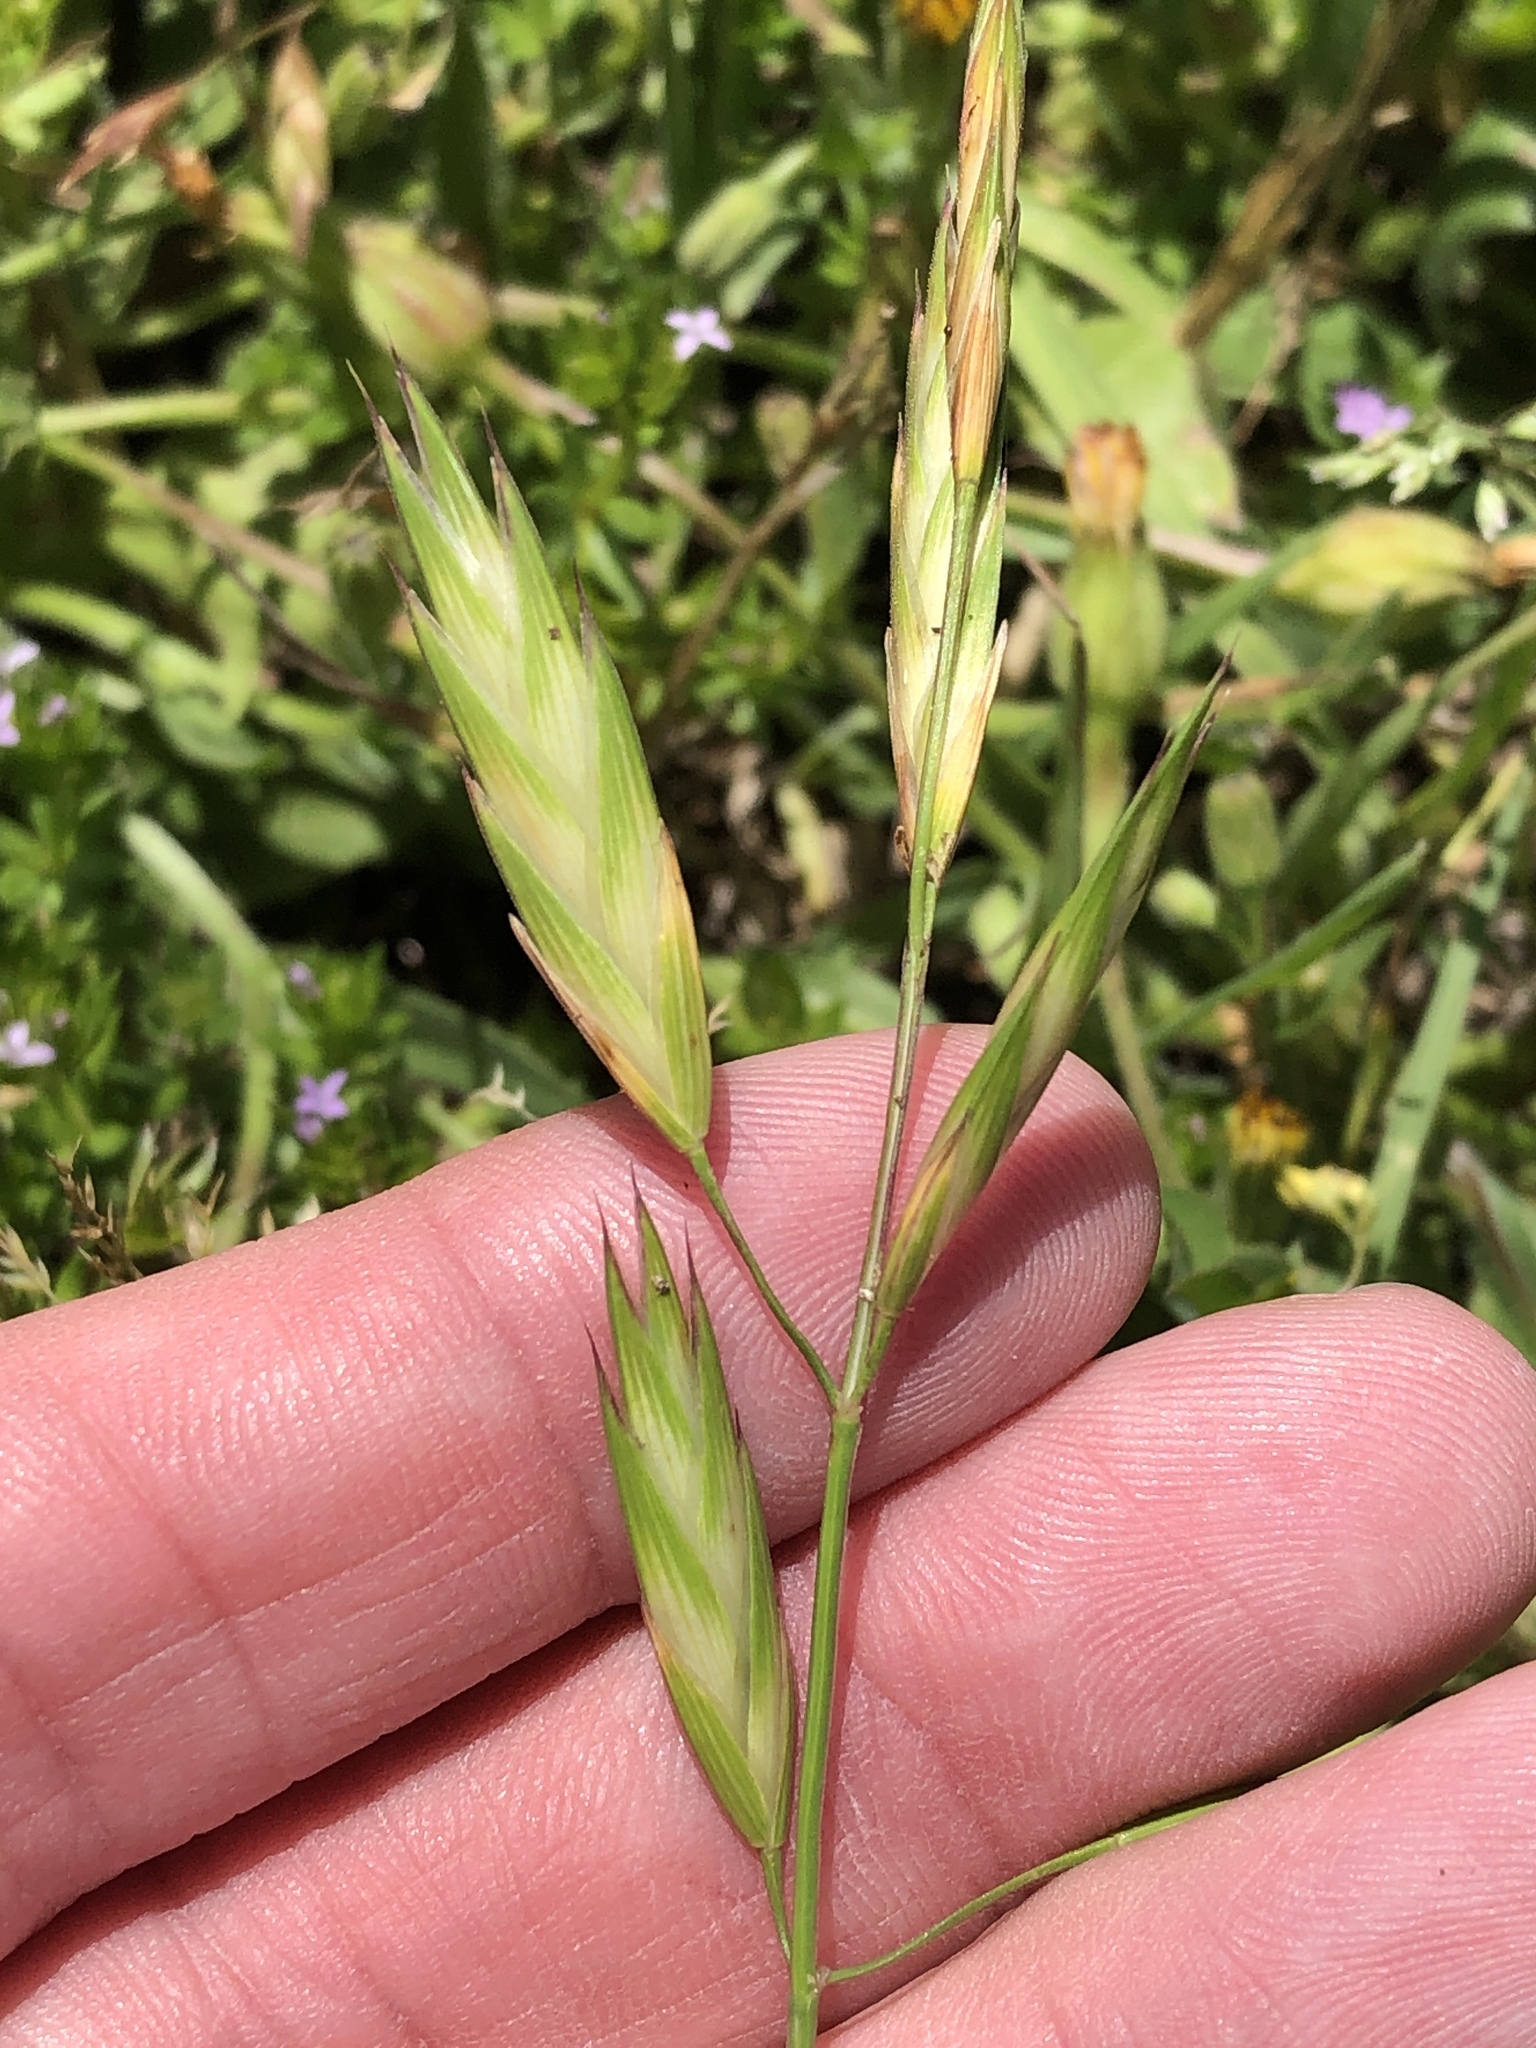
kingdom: Plantae
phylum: Tracheophyta
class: Liliopsida
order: Poales
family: Poaceae
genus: Bromus
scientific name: Bromus catharticus
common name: Rescuegrass
